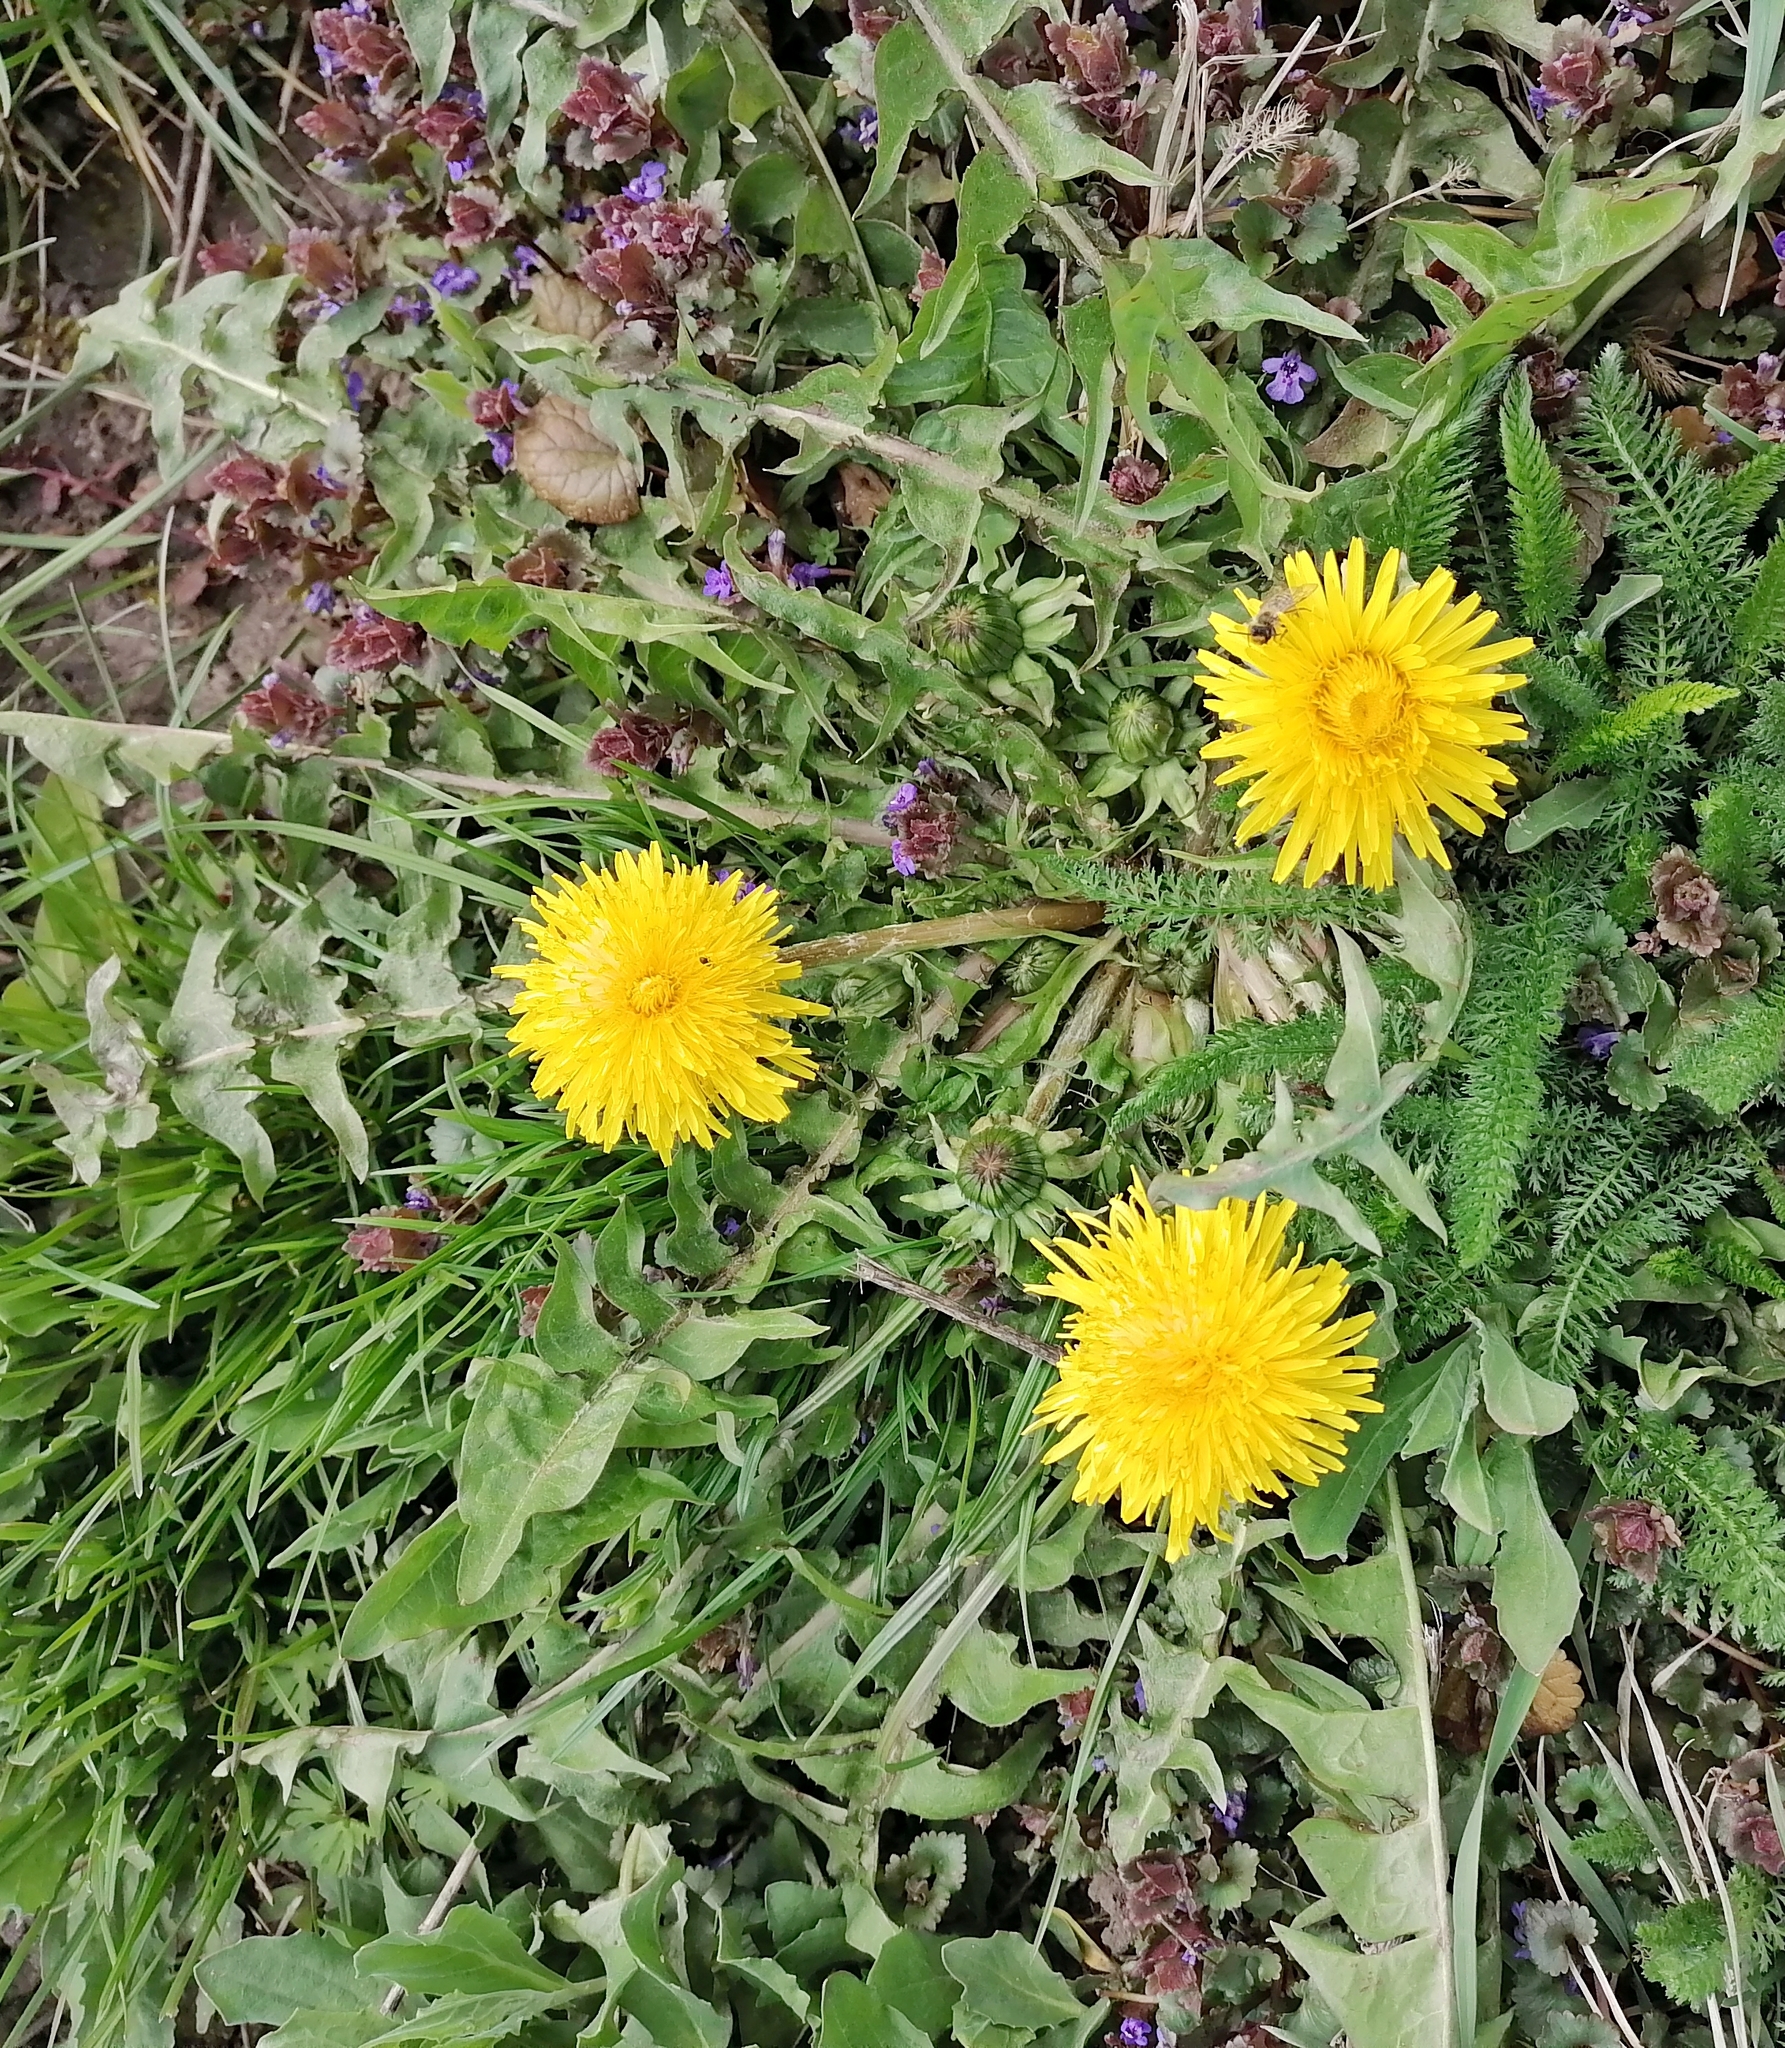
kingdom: Plantae
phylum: Tracheophyta
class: Magnoliopsida
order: Asterales
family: Asteraceae
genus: Taraxacum
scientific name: Taraxacum officinale
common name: Common dandelion
